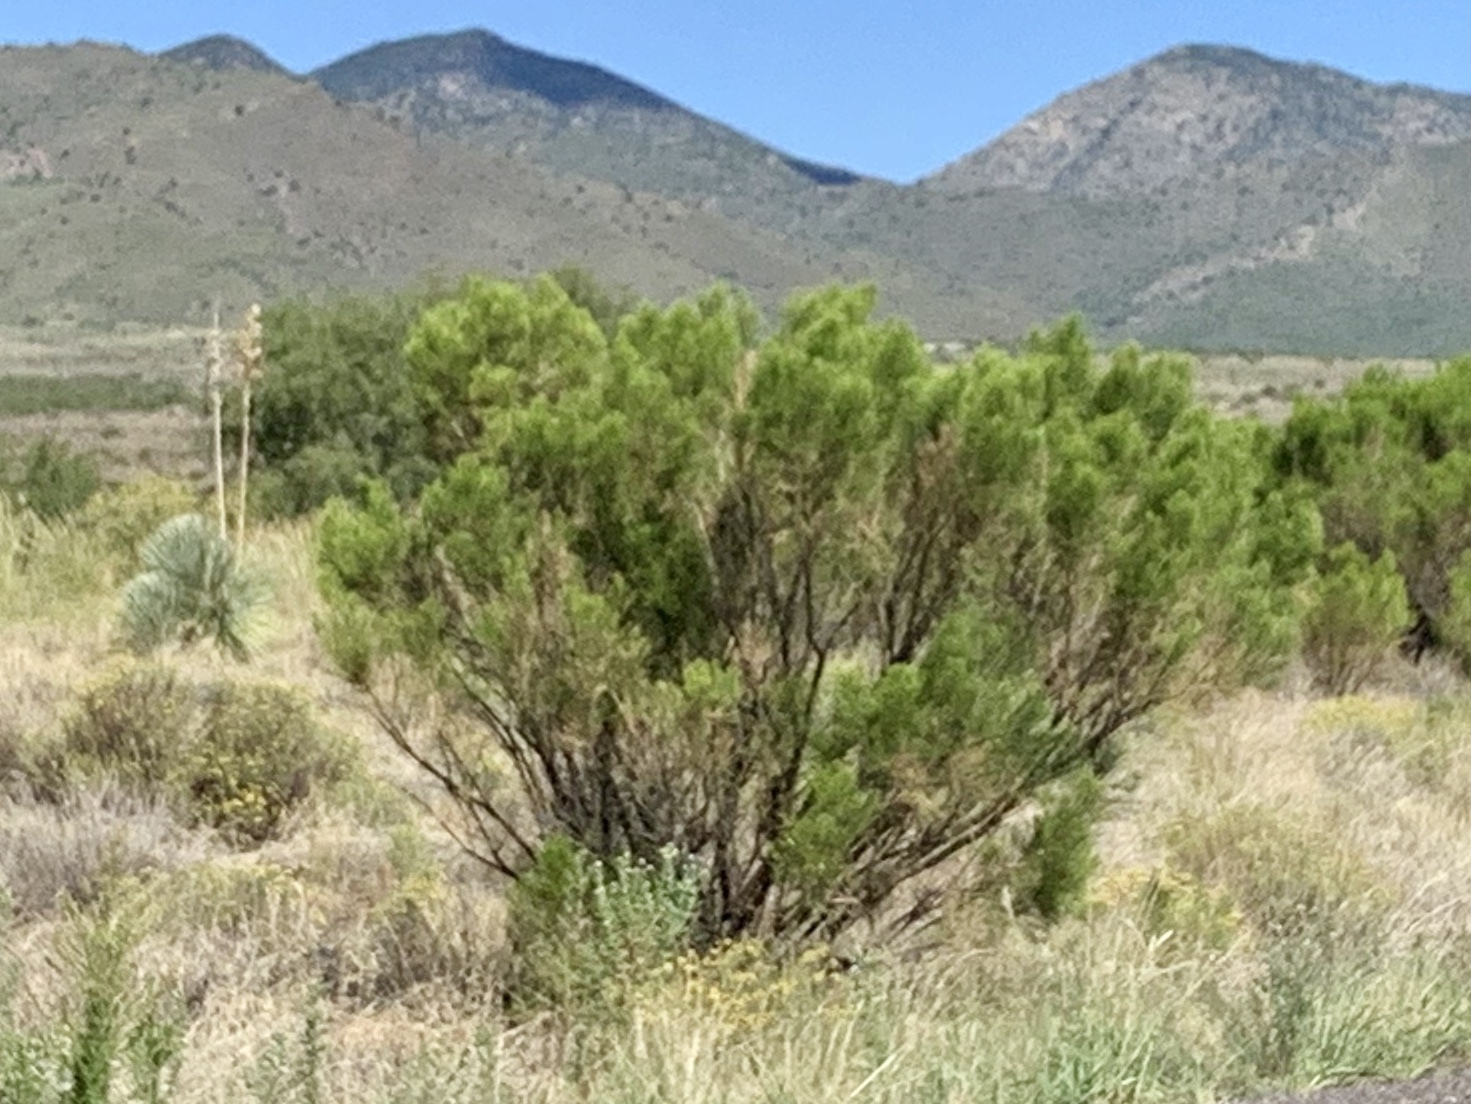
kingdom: Plantae
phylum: Tracheophyta
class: Magnoliopsida
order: Asterales
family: Asteraceae
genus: Baccharis
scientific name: Baccharis sarothroides
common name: Desert-broom
